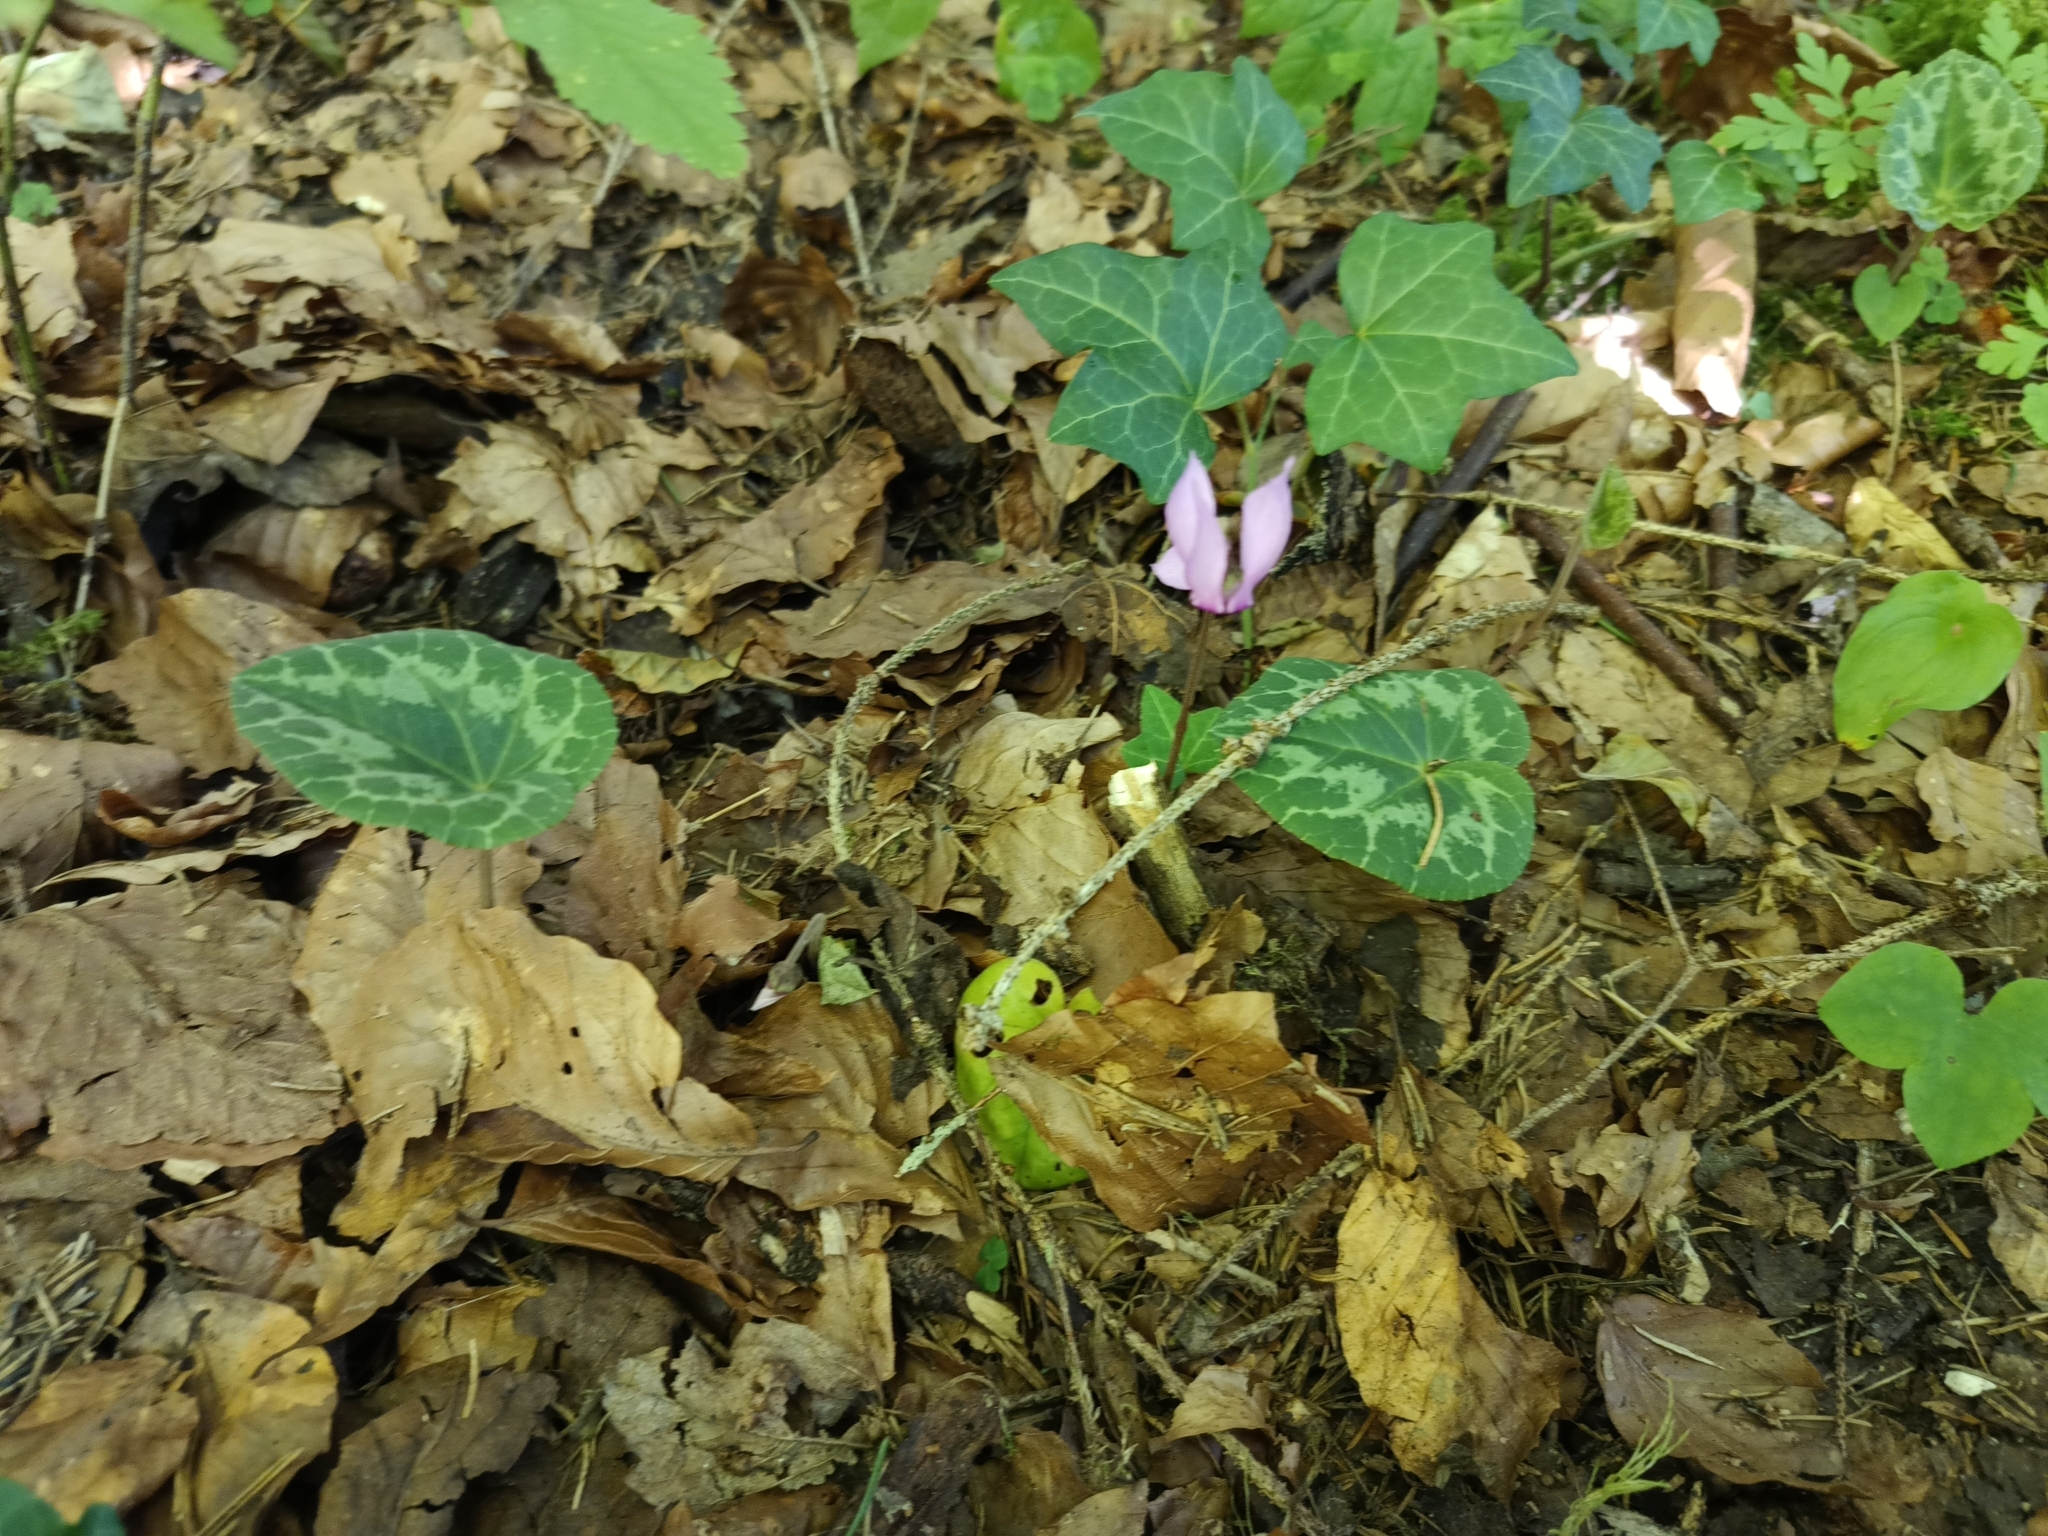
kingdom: Plantae
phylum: Tracheophyta
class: Magnoliopsida
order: Ericales
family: Primulaceae
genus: Cyclamen
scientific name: Cyclamen purpurascens
